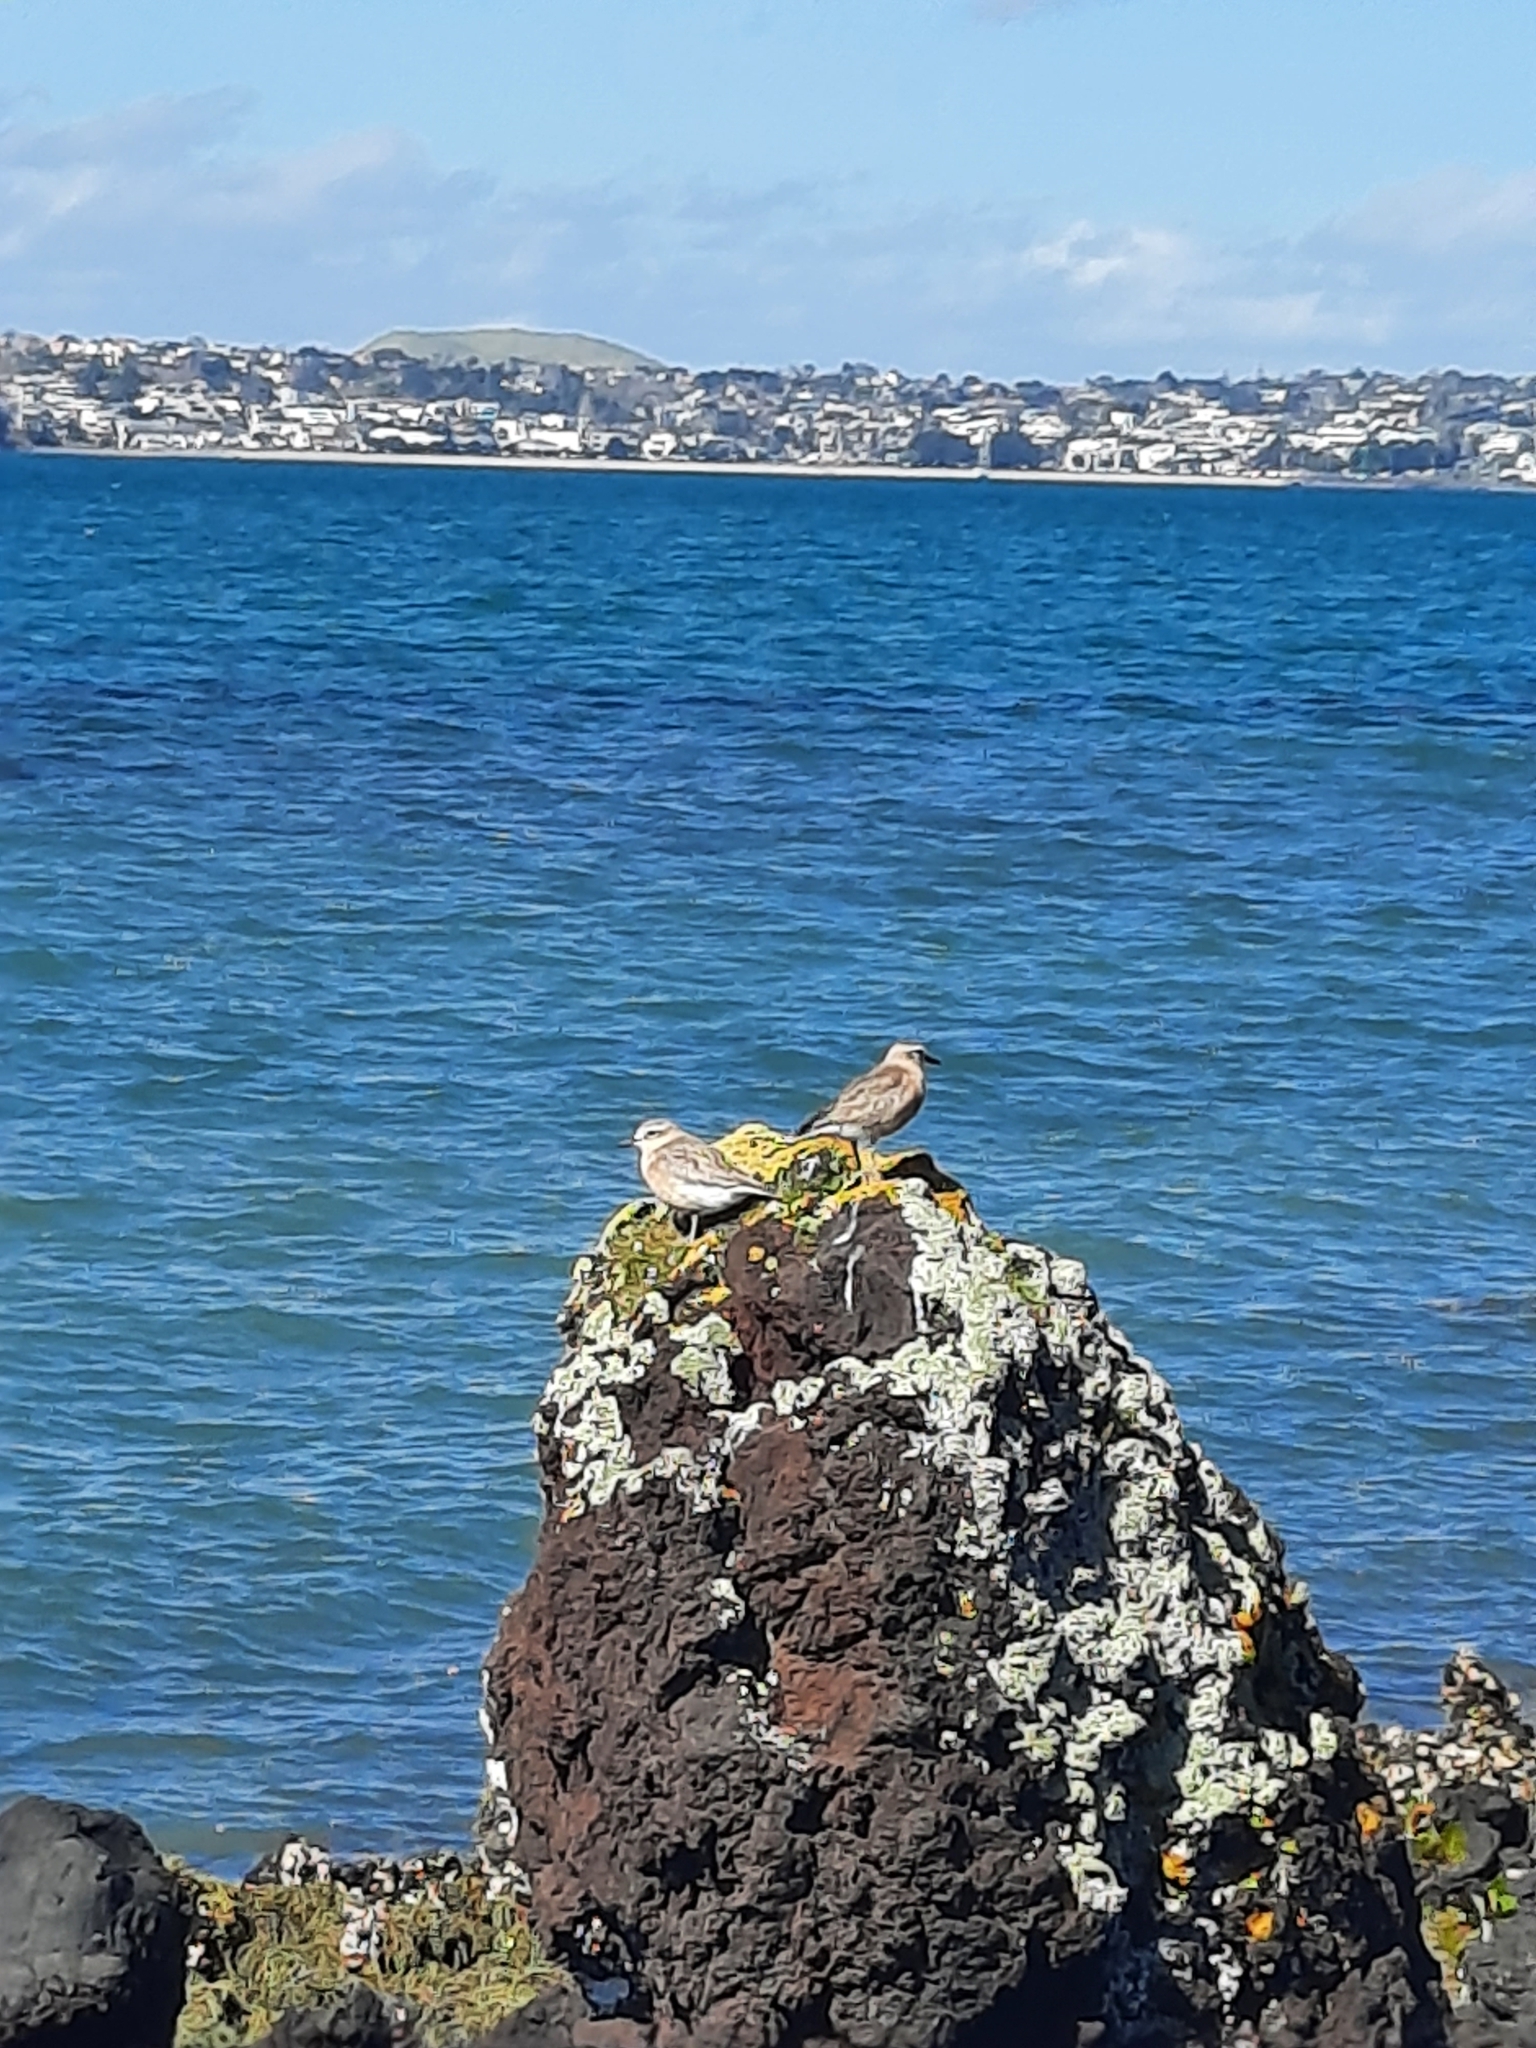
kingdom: Animalia
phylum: Chordata
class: Aves
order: Charadriiformes
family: Charadriidae
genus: Anarhynchus
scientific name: Anarhynchus
